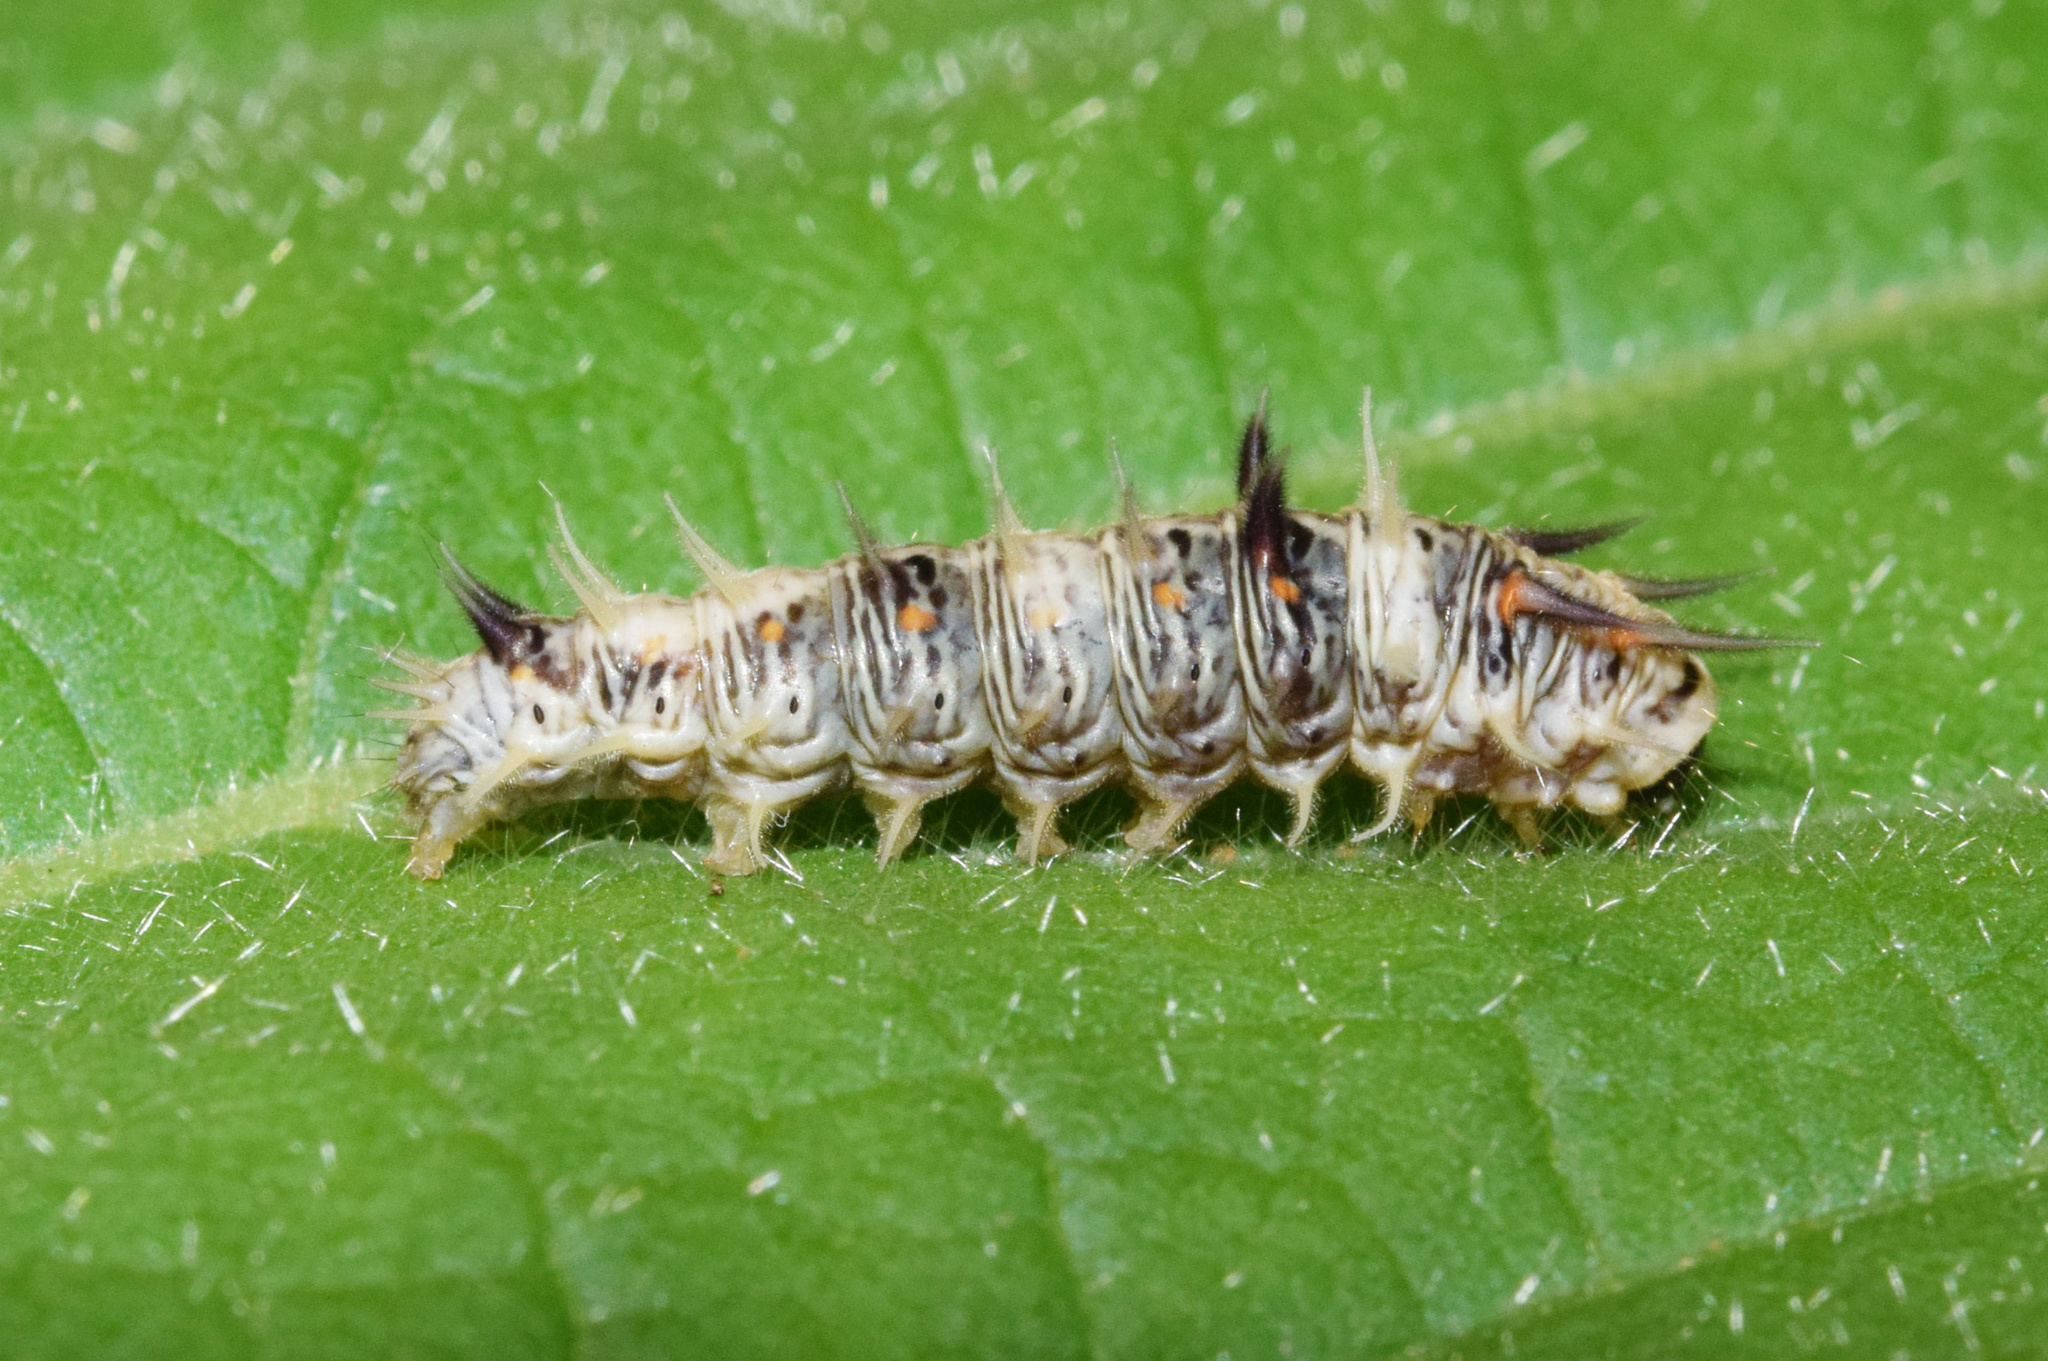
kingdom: Animalia
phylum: Arthropoda
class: Insecta
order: Lepidoptera
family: Nolidae
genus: Earias
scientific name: Earias biplaga
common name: Spiny bollworm
